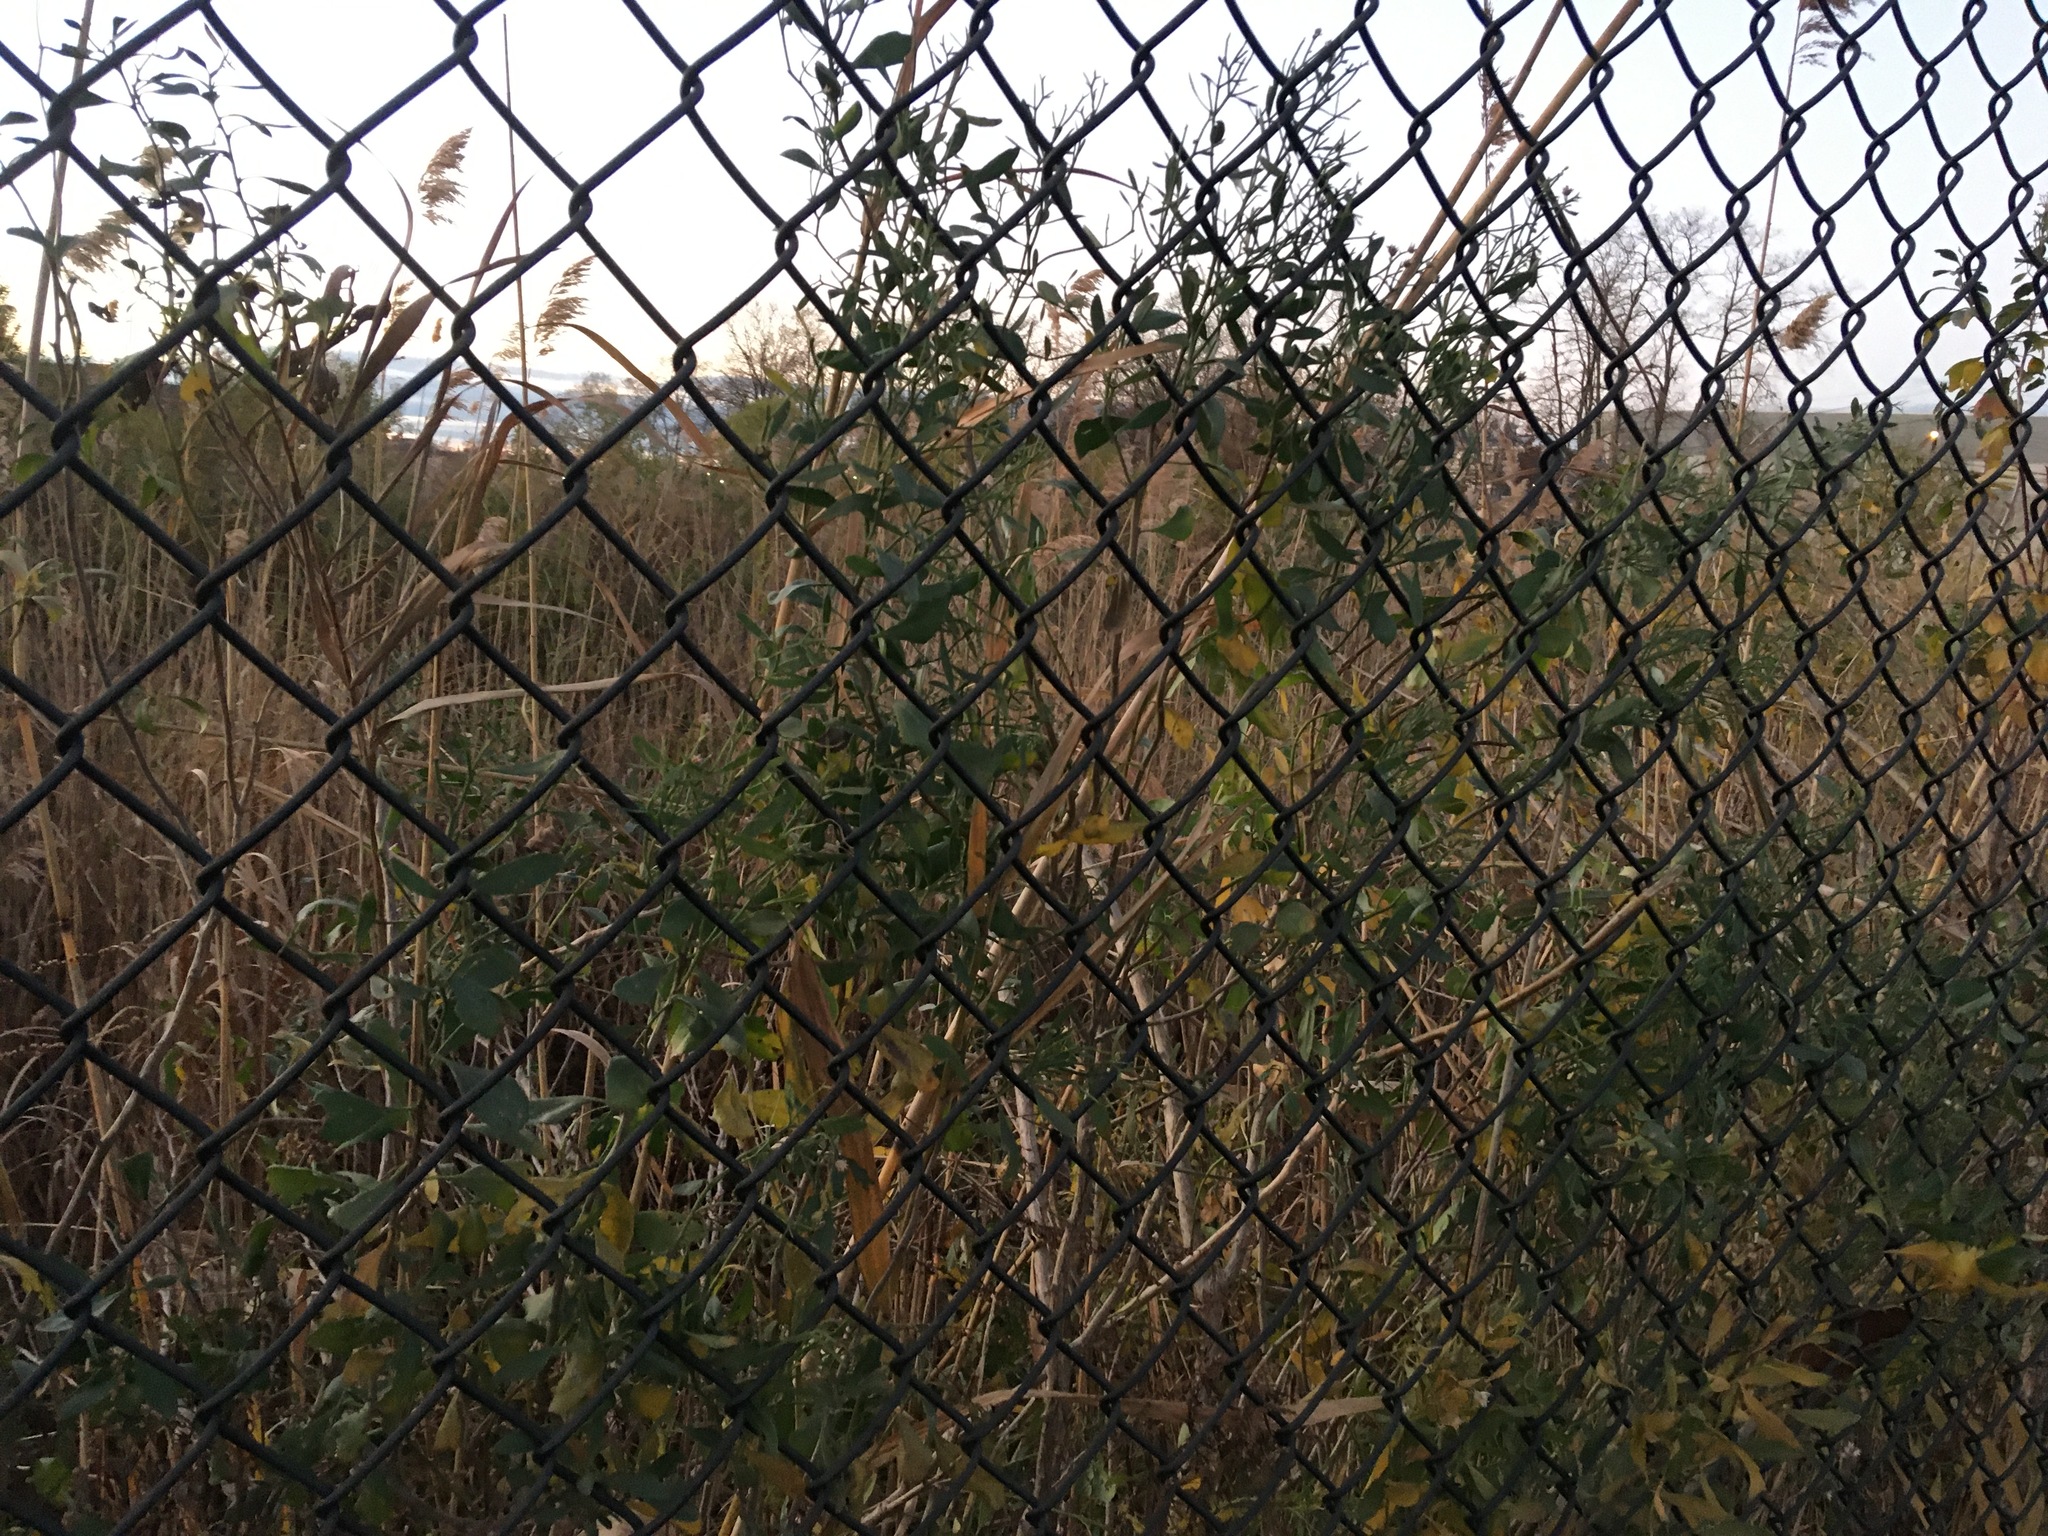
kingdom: Plantae
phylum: Tracheophyta
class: Magnoliopsida
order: Asterales
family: Asteraceae
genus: Baccharis
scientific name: Baccharis halimifolia
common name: Eastern baccharis
